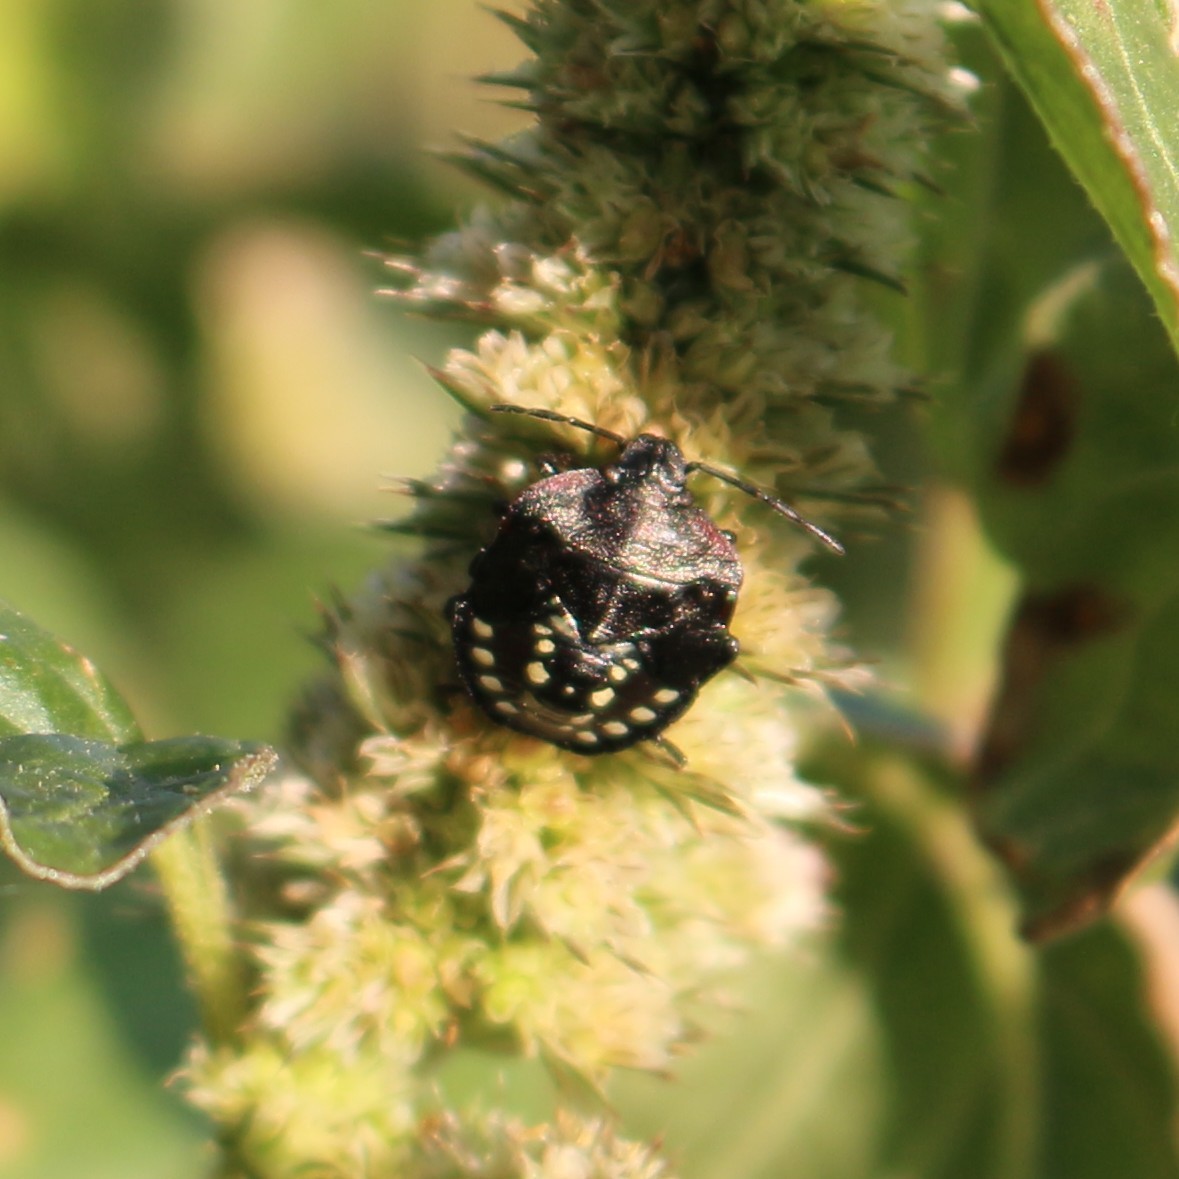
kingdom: Animalia
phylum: Arthropoda
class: Insecta
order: Hemiptera
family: Pentatomidae
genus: Nezara
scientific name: Nezara viridula
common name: Southern green stink bug
